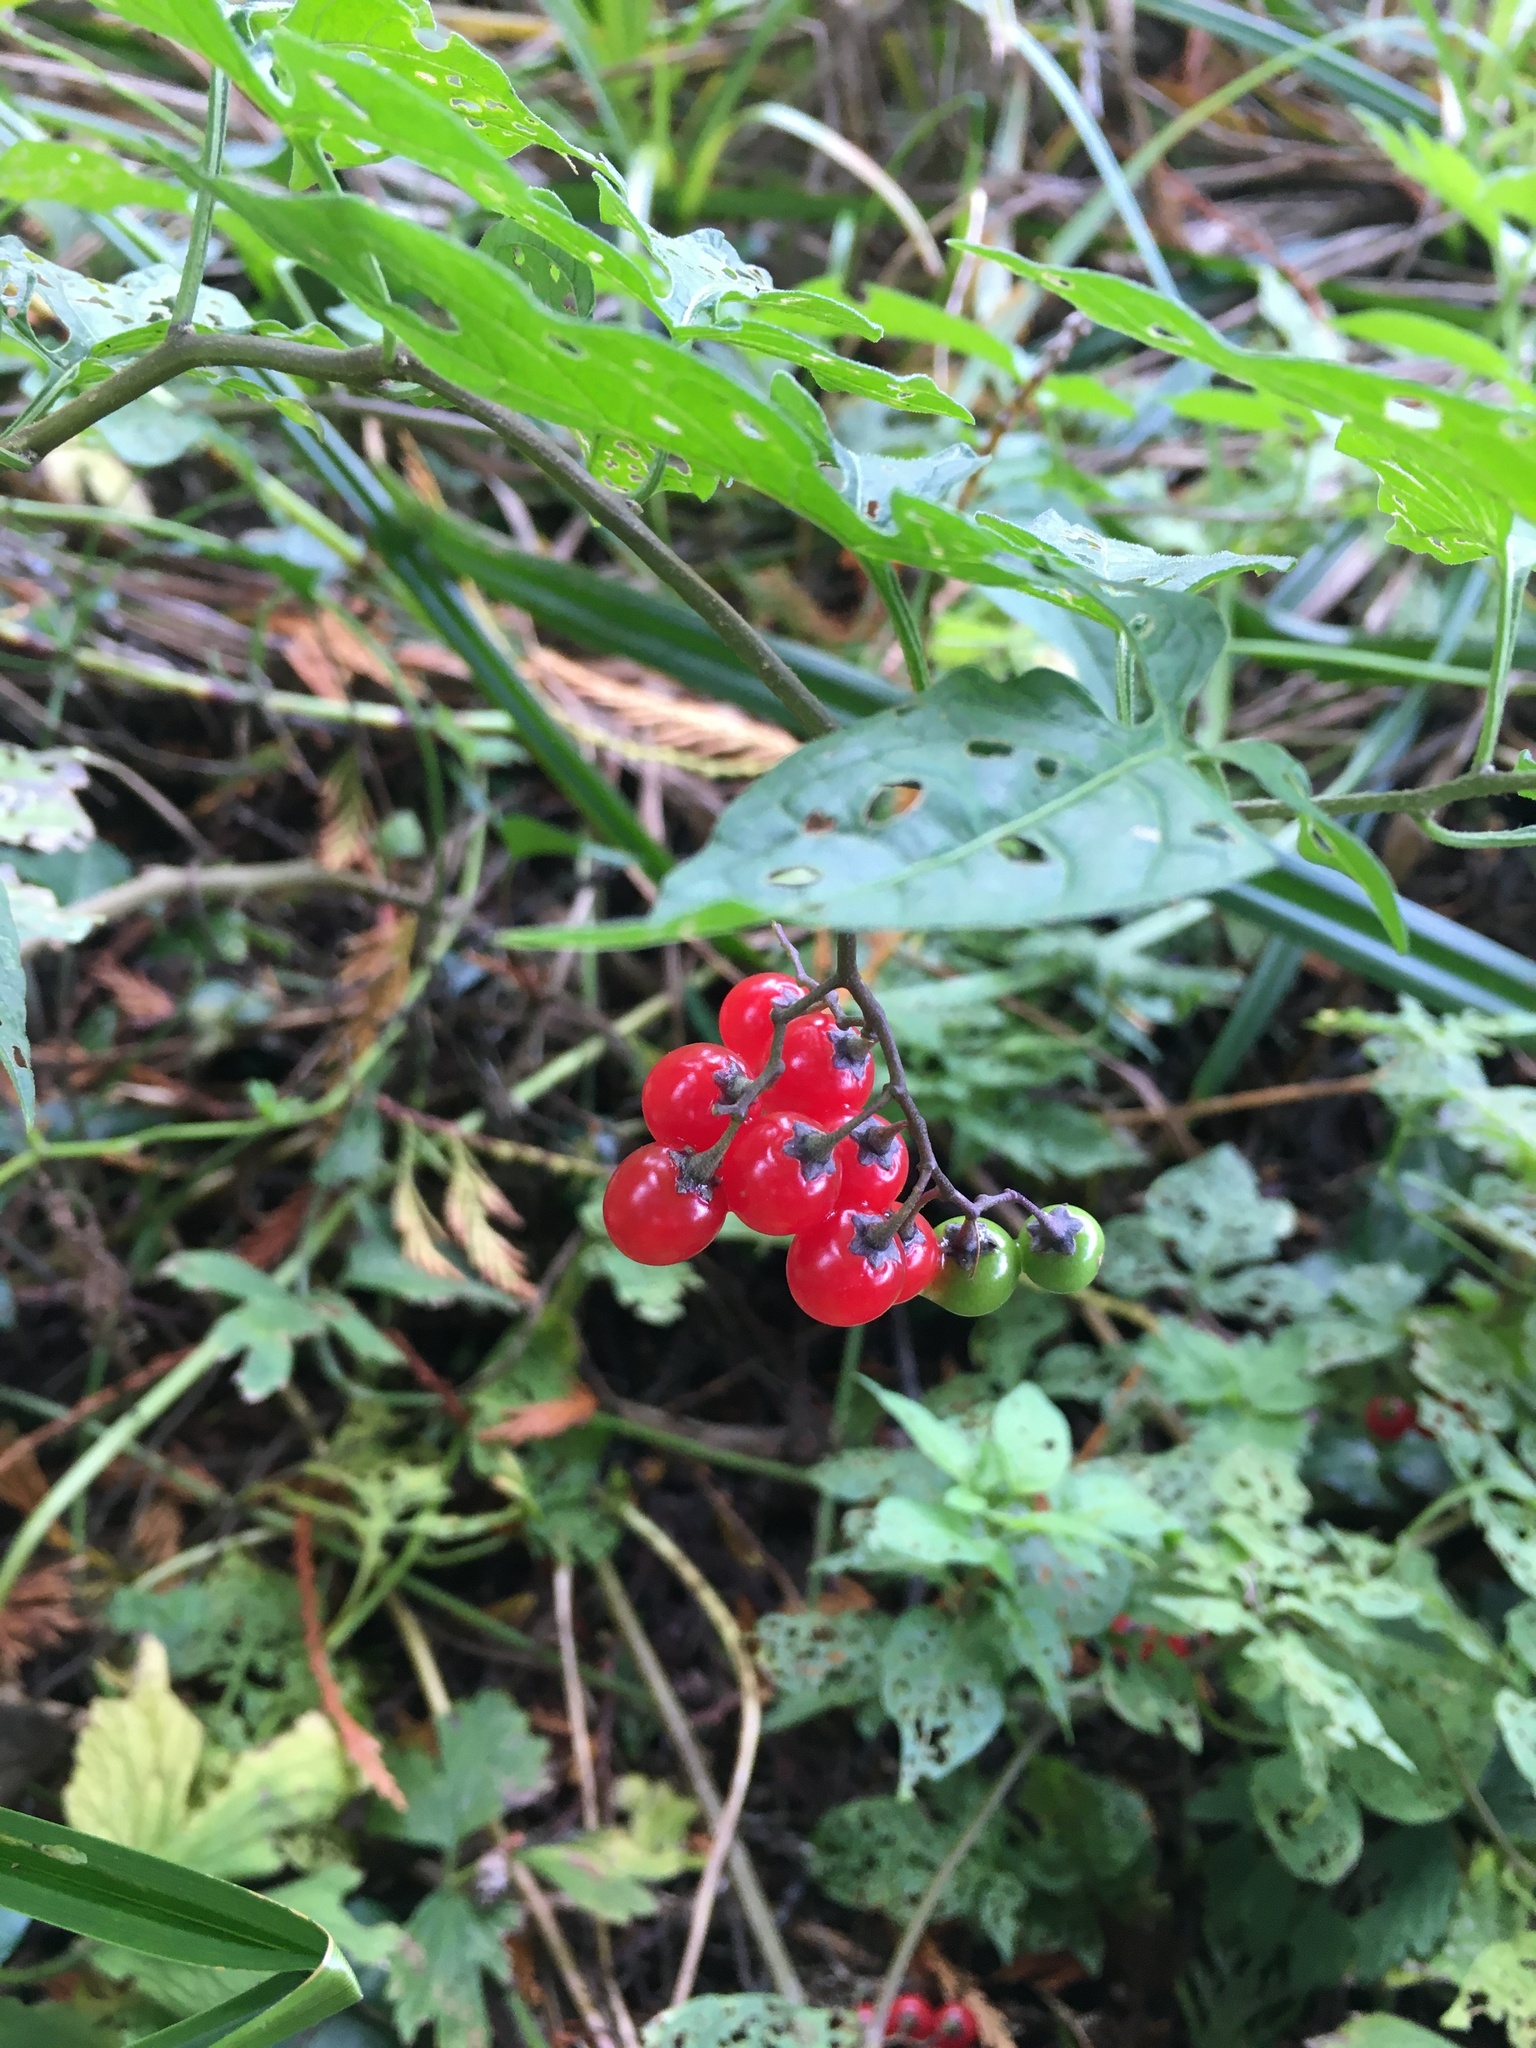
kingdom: Plantae
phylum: Tracheophyta
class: Magnoliopsida
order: Solanales
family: Solanaceae
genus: Solanum
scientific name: Solanum dulcamara
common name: Climbing nightshade
